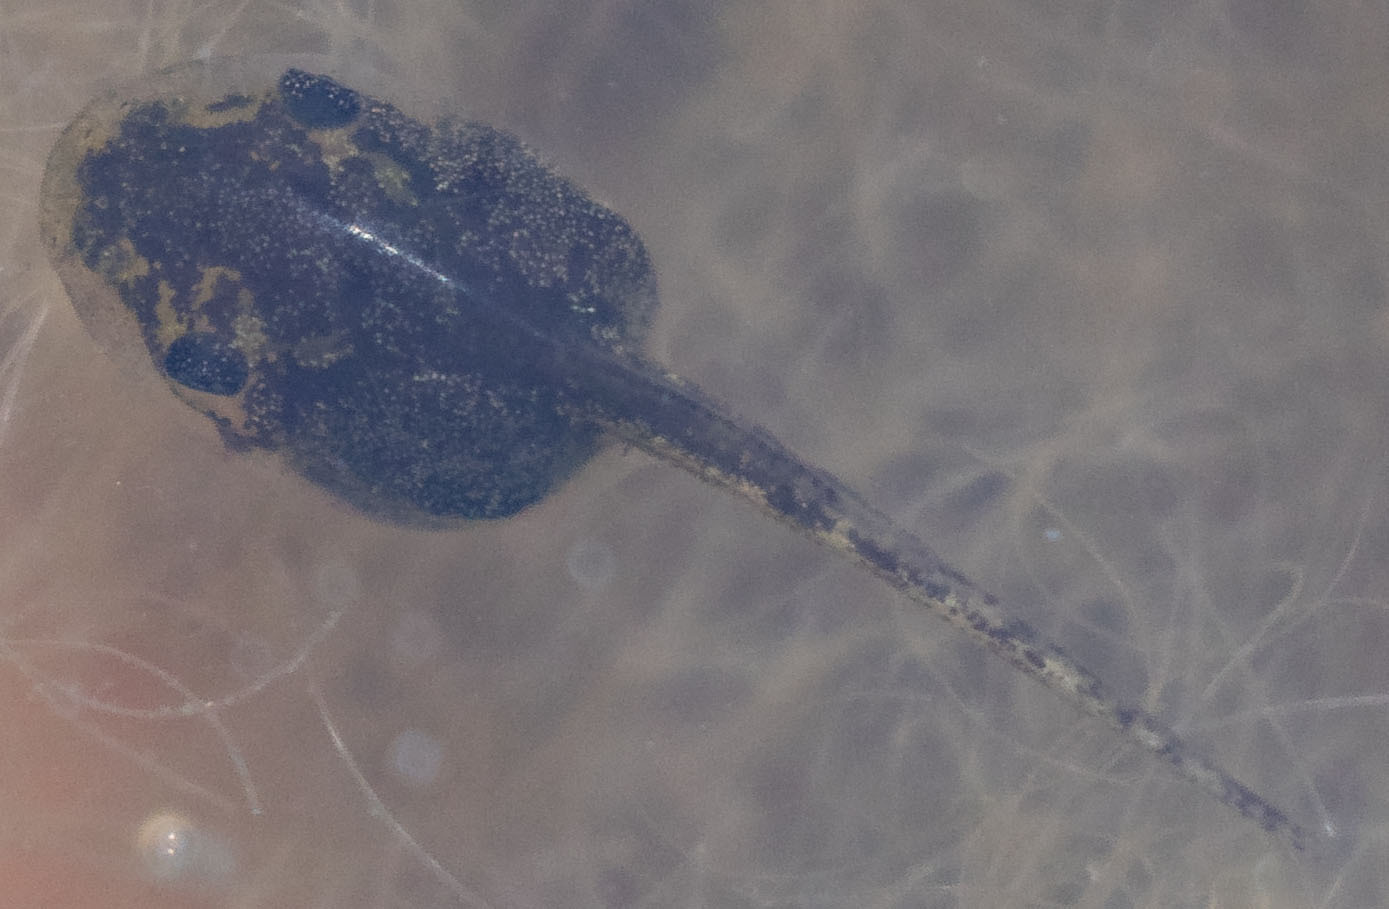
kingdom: Animalia
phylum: Chordata
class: Amphibia
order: Anura
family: Hylidae
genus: Pseudacris
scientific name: Pseudacris regilla
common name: Pacific chorus frog
